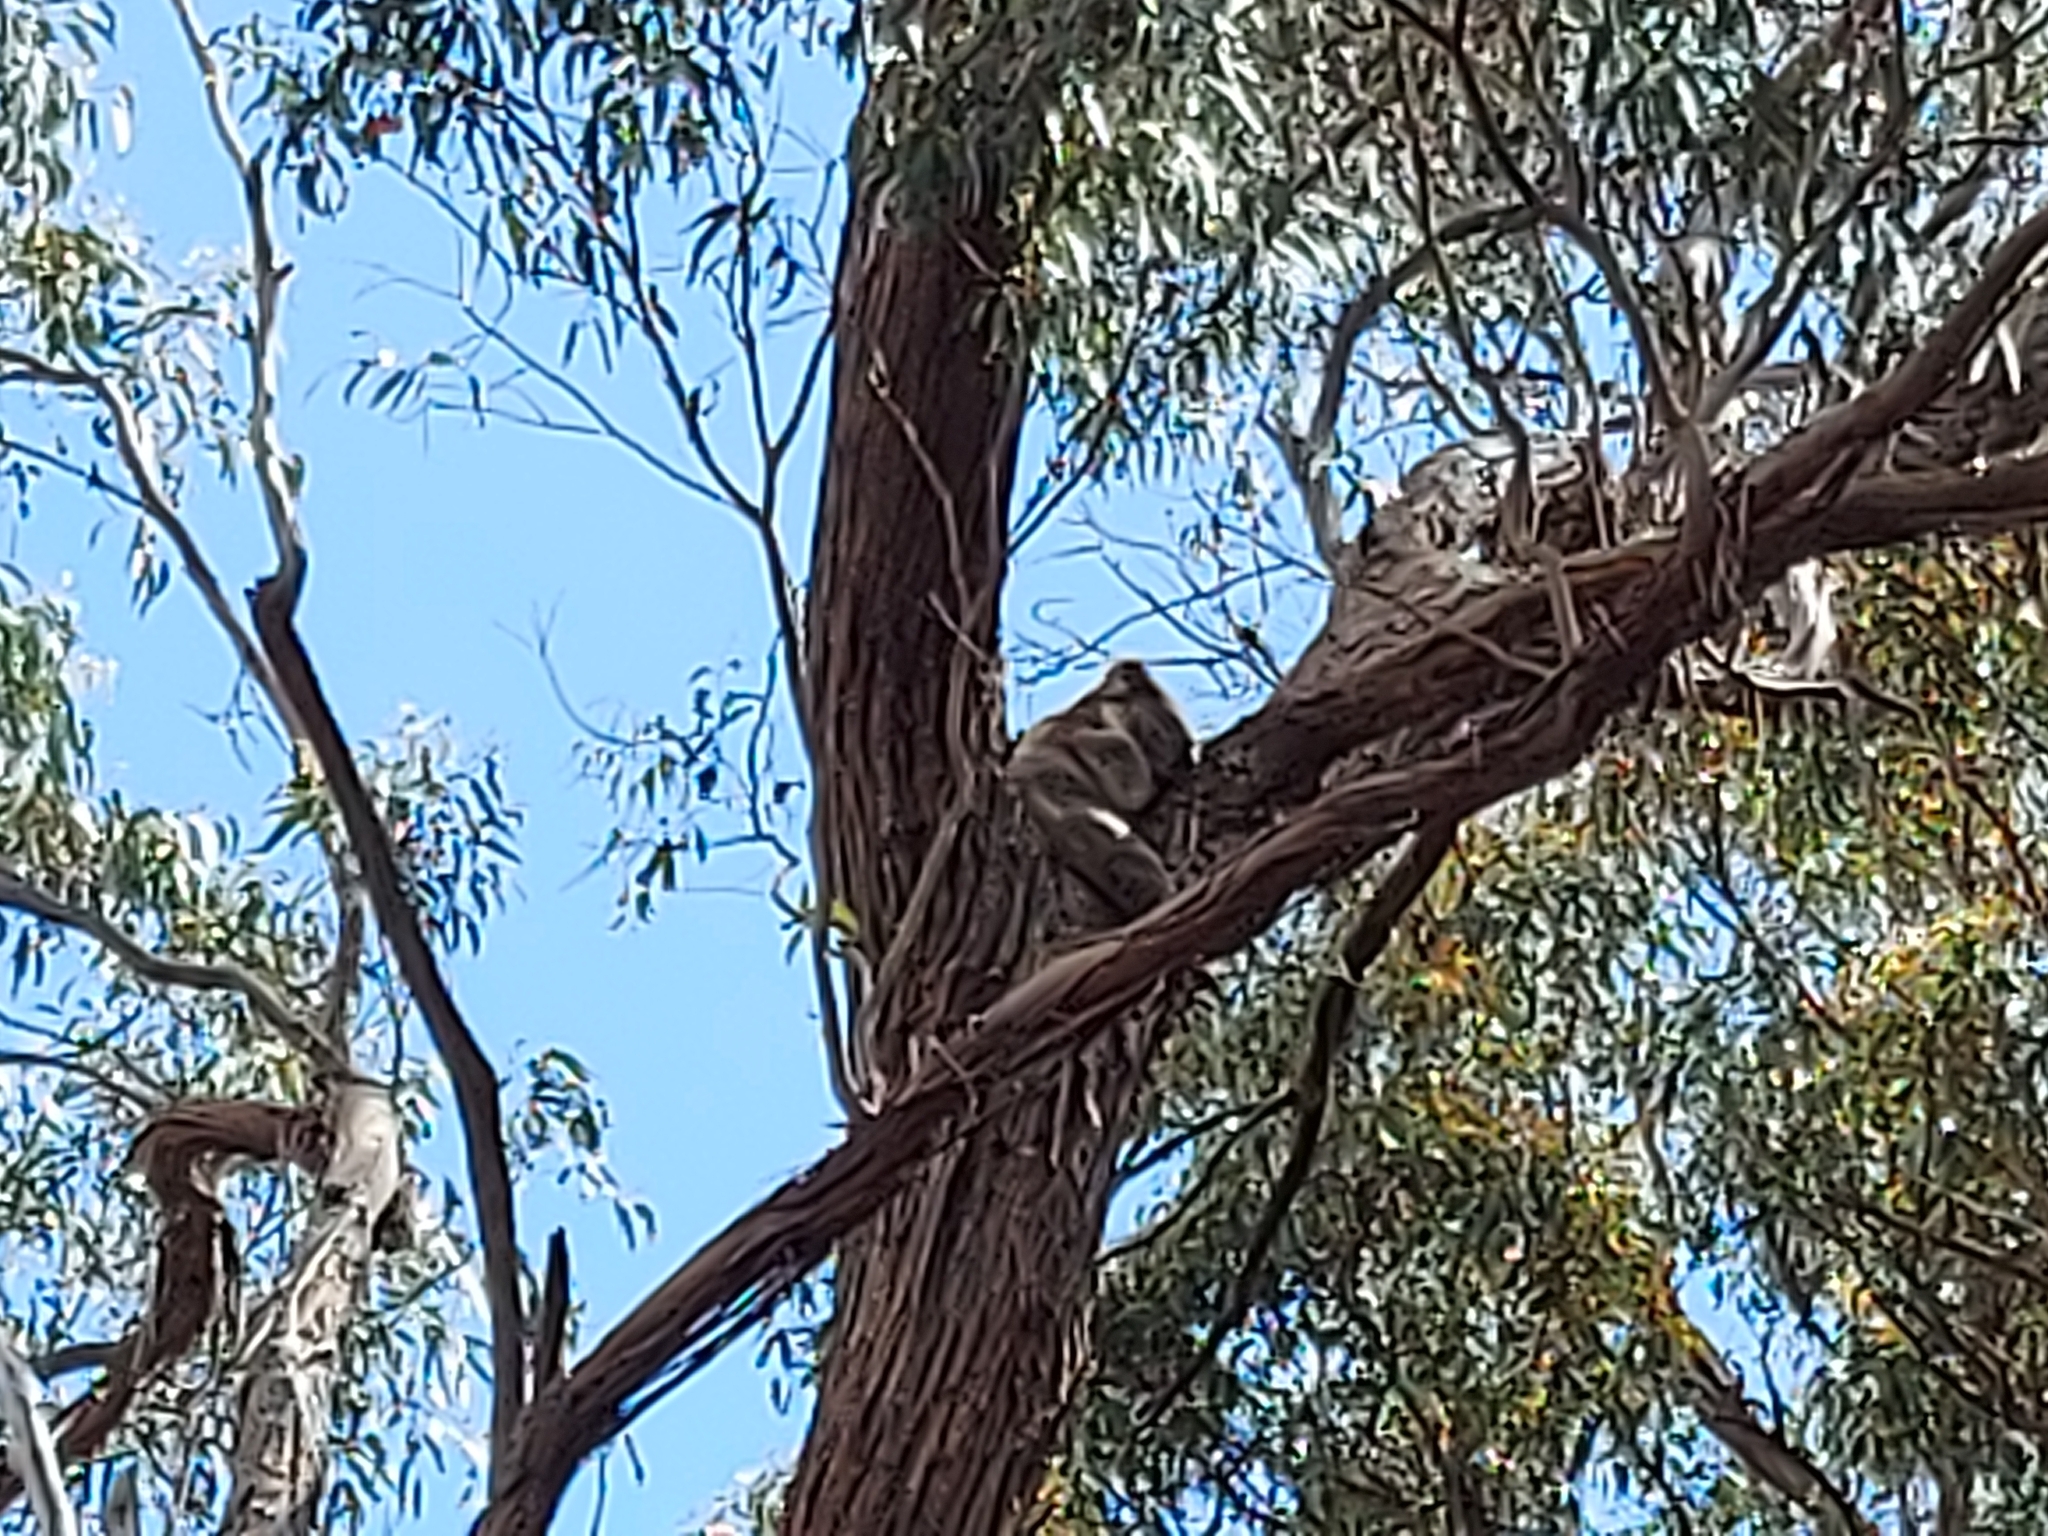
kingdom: Animalia
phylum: Chordata
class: Mammalia
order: Diprotodontia
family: Phascolarctidae
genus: Phascolarctos
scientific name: Phascolarctos cinereus
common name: Koala
